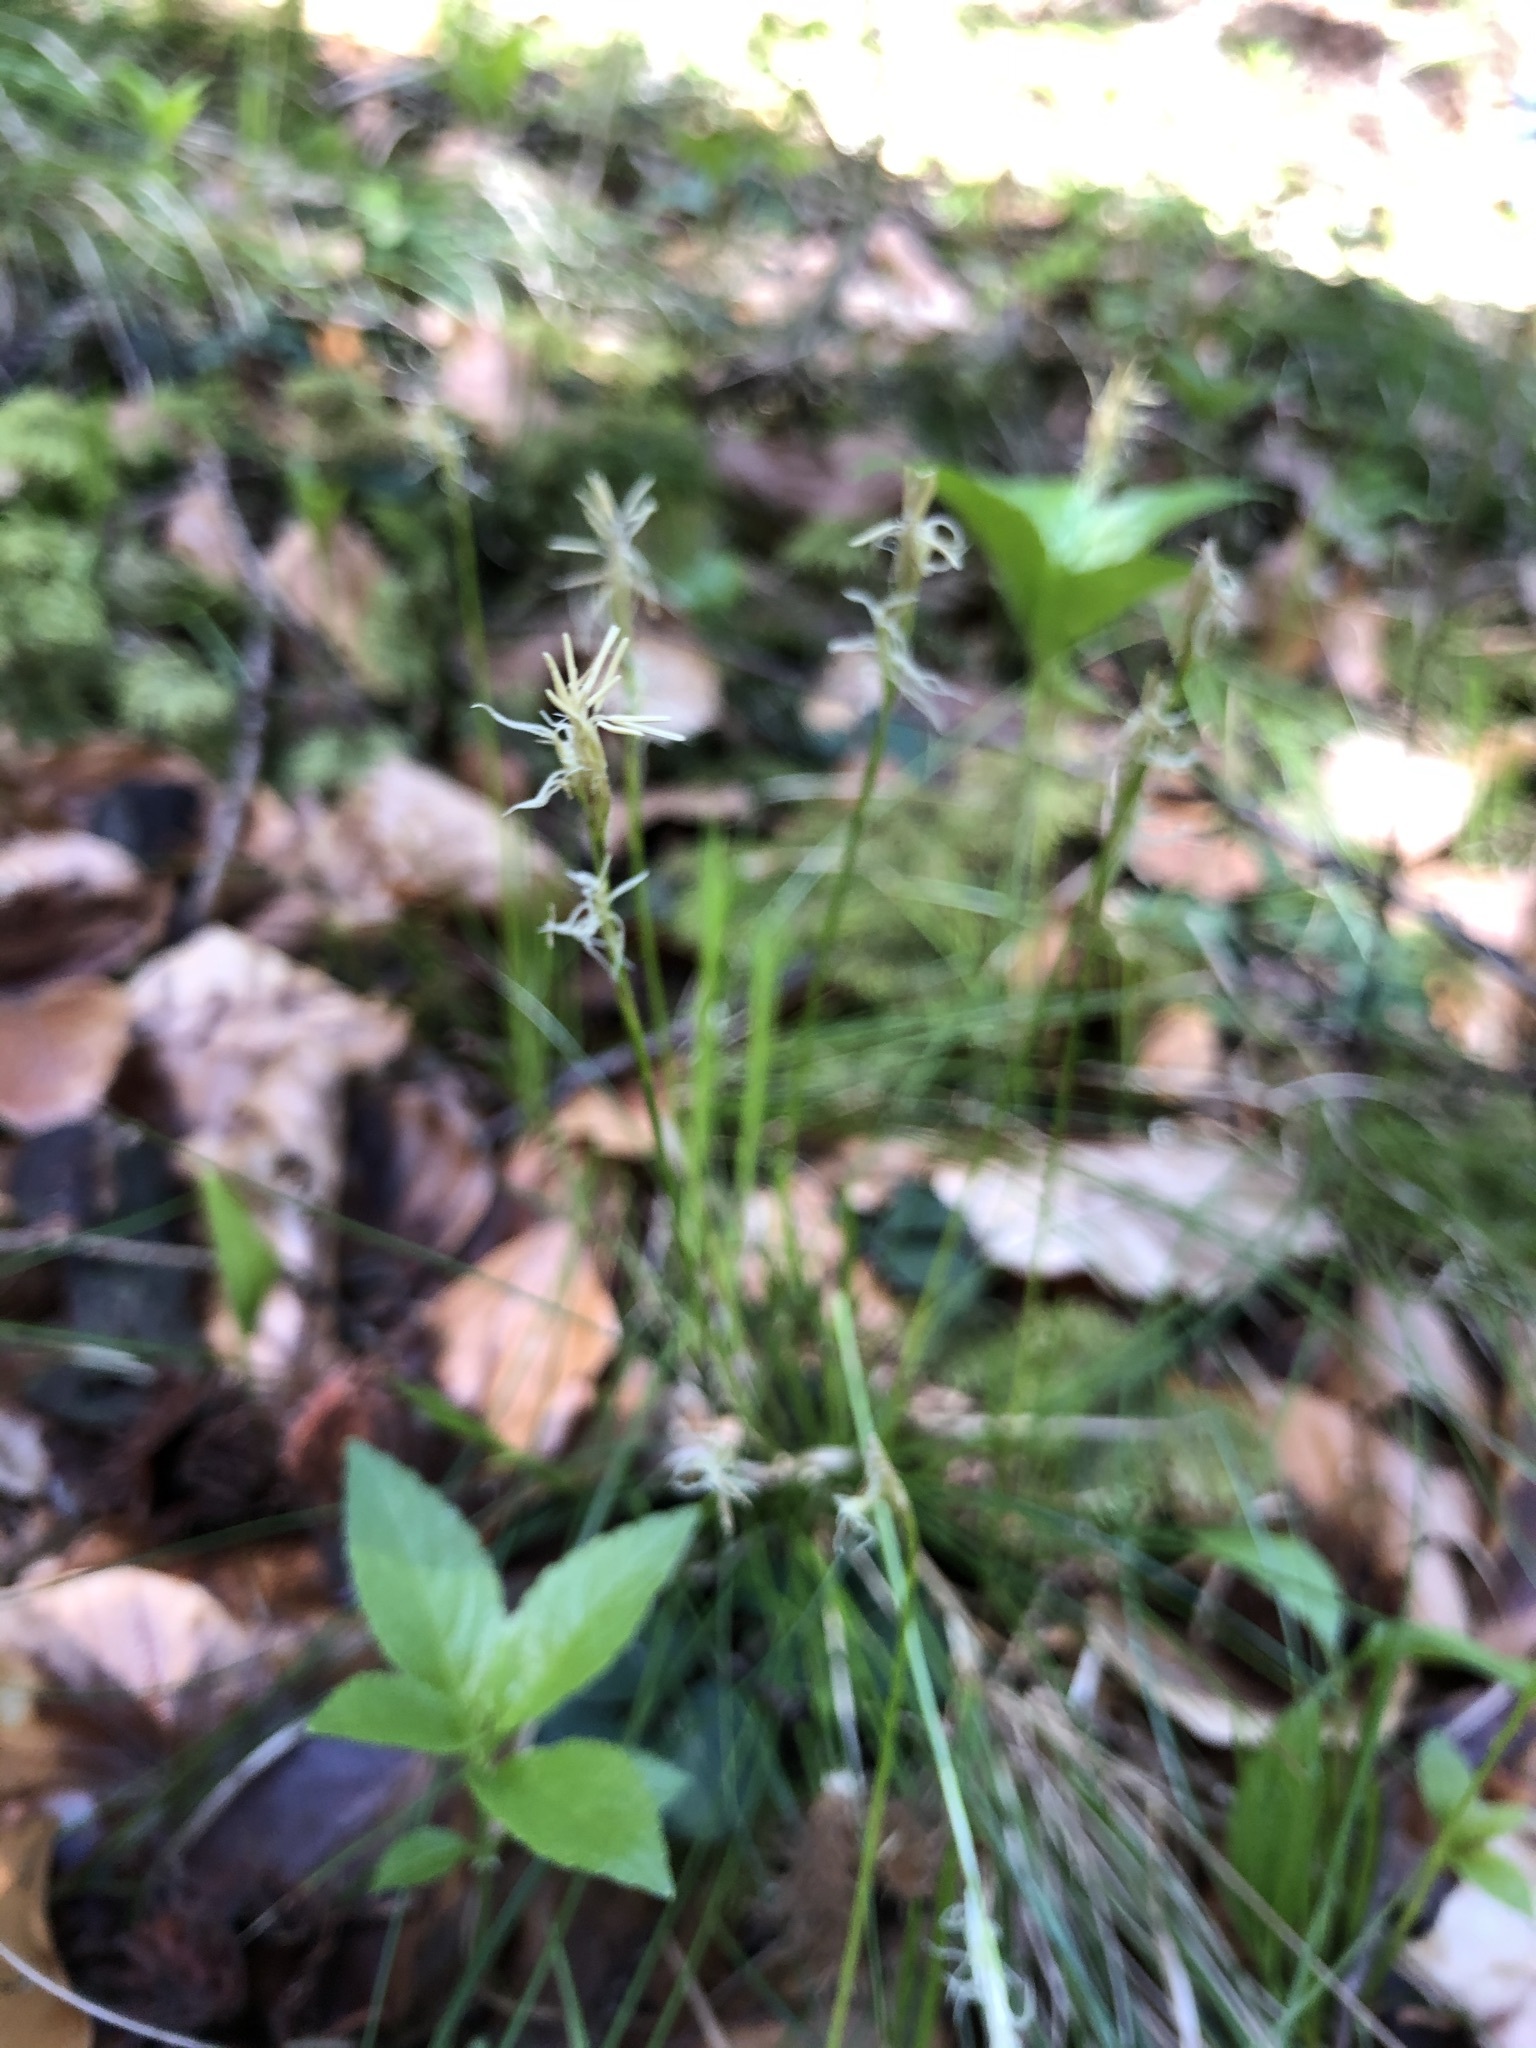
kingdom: Plantae
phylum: Tracheophyta
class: Liliopsida
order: Poales
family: Cyperaceae
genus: Carex
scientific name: Carex alba
